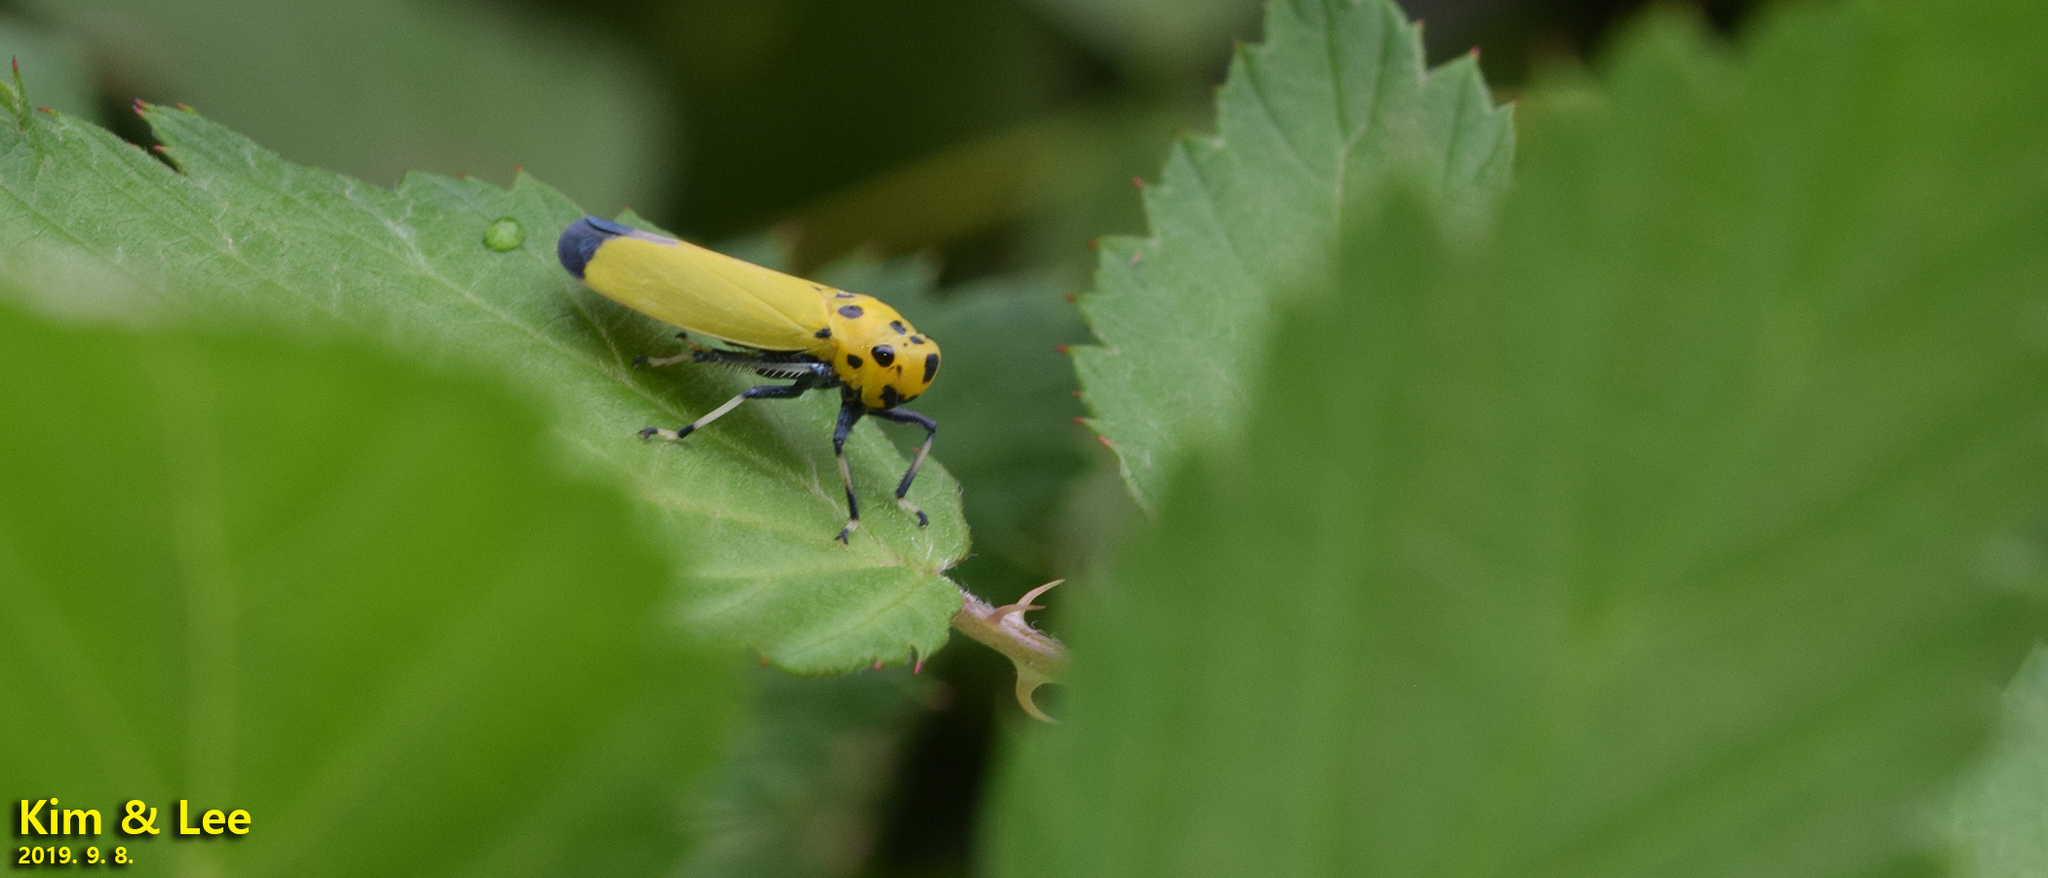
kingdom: Animalia
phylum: Arthropoda
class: Insecta
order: Hemiptera
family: Cicadellidae
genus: Bothrogonia
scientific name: Bothrogonia ferruginea
